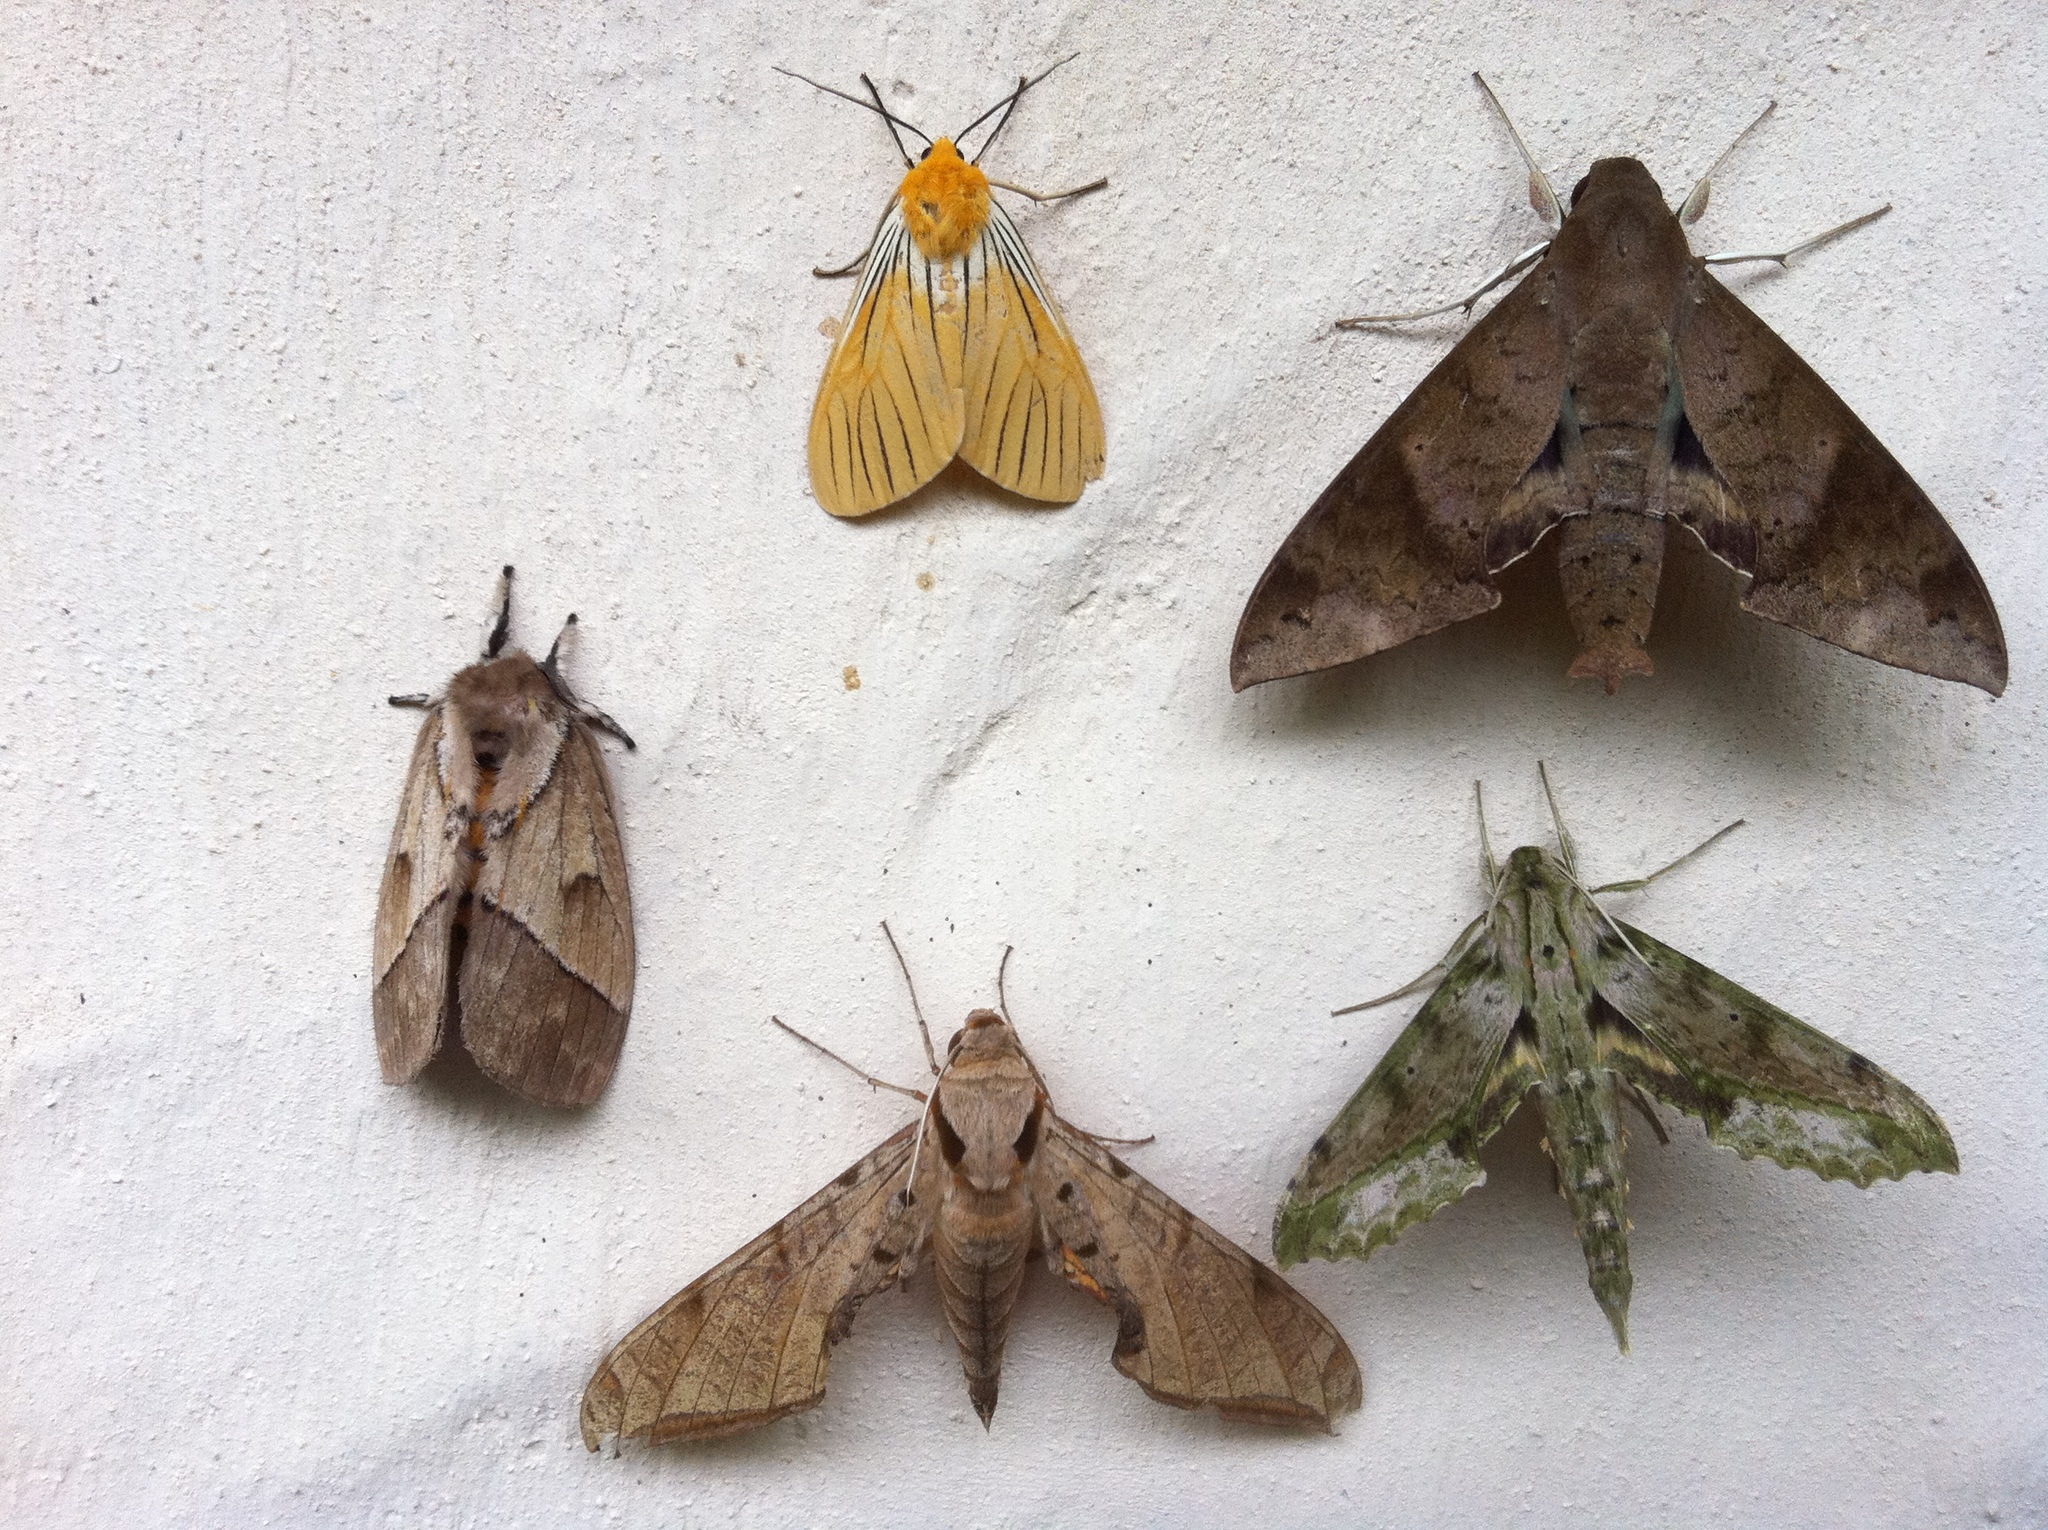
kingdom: Animalia
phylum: Arthropoda
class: Insecta
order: Lepidoptera
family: Erebidae
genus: Pseudischnocampa
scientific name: Pseudischnocampa
